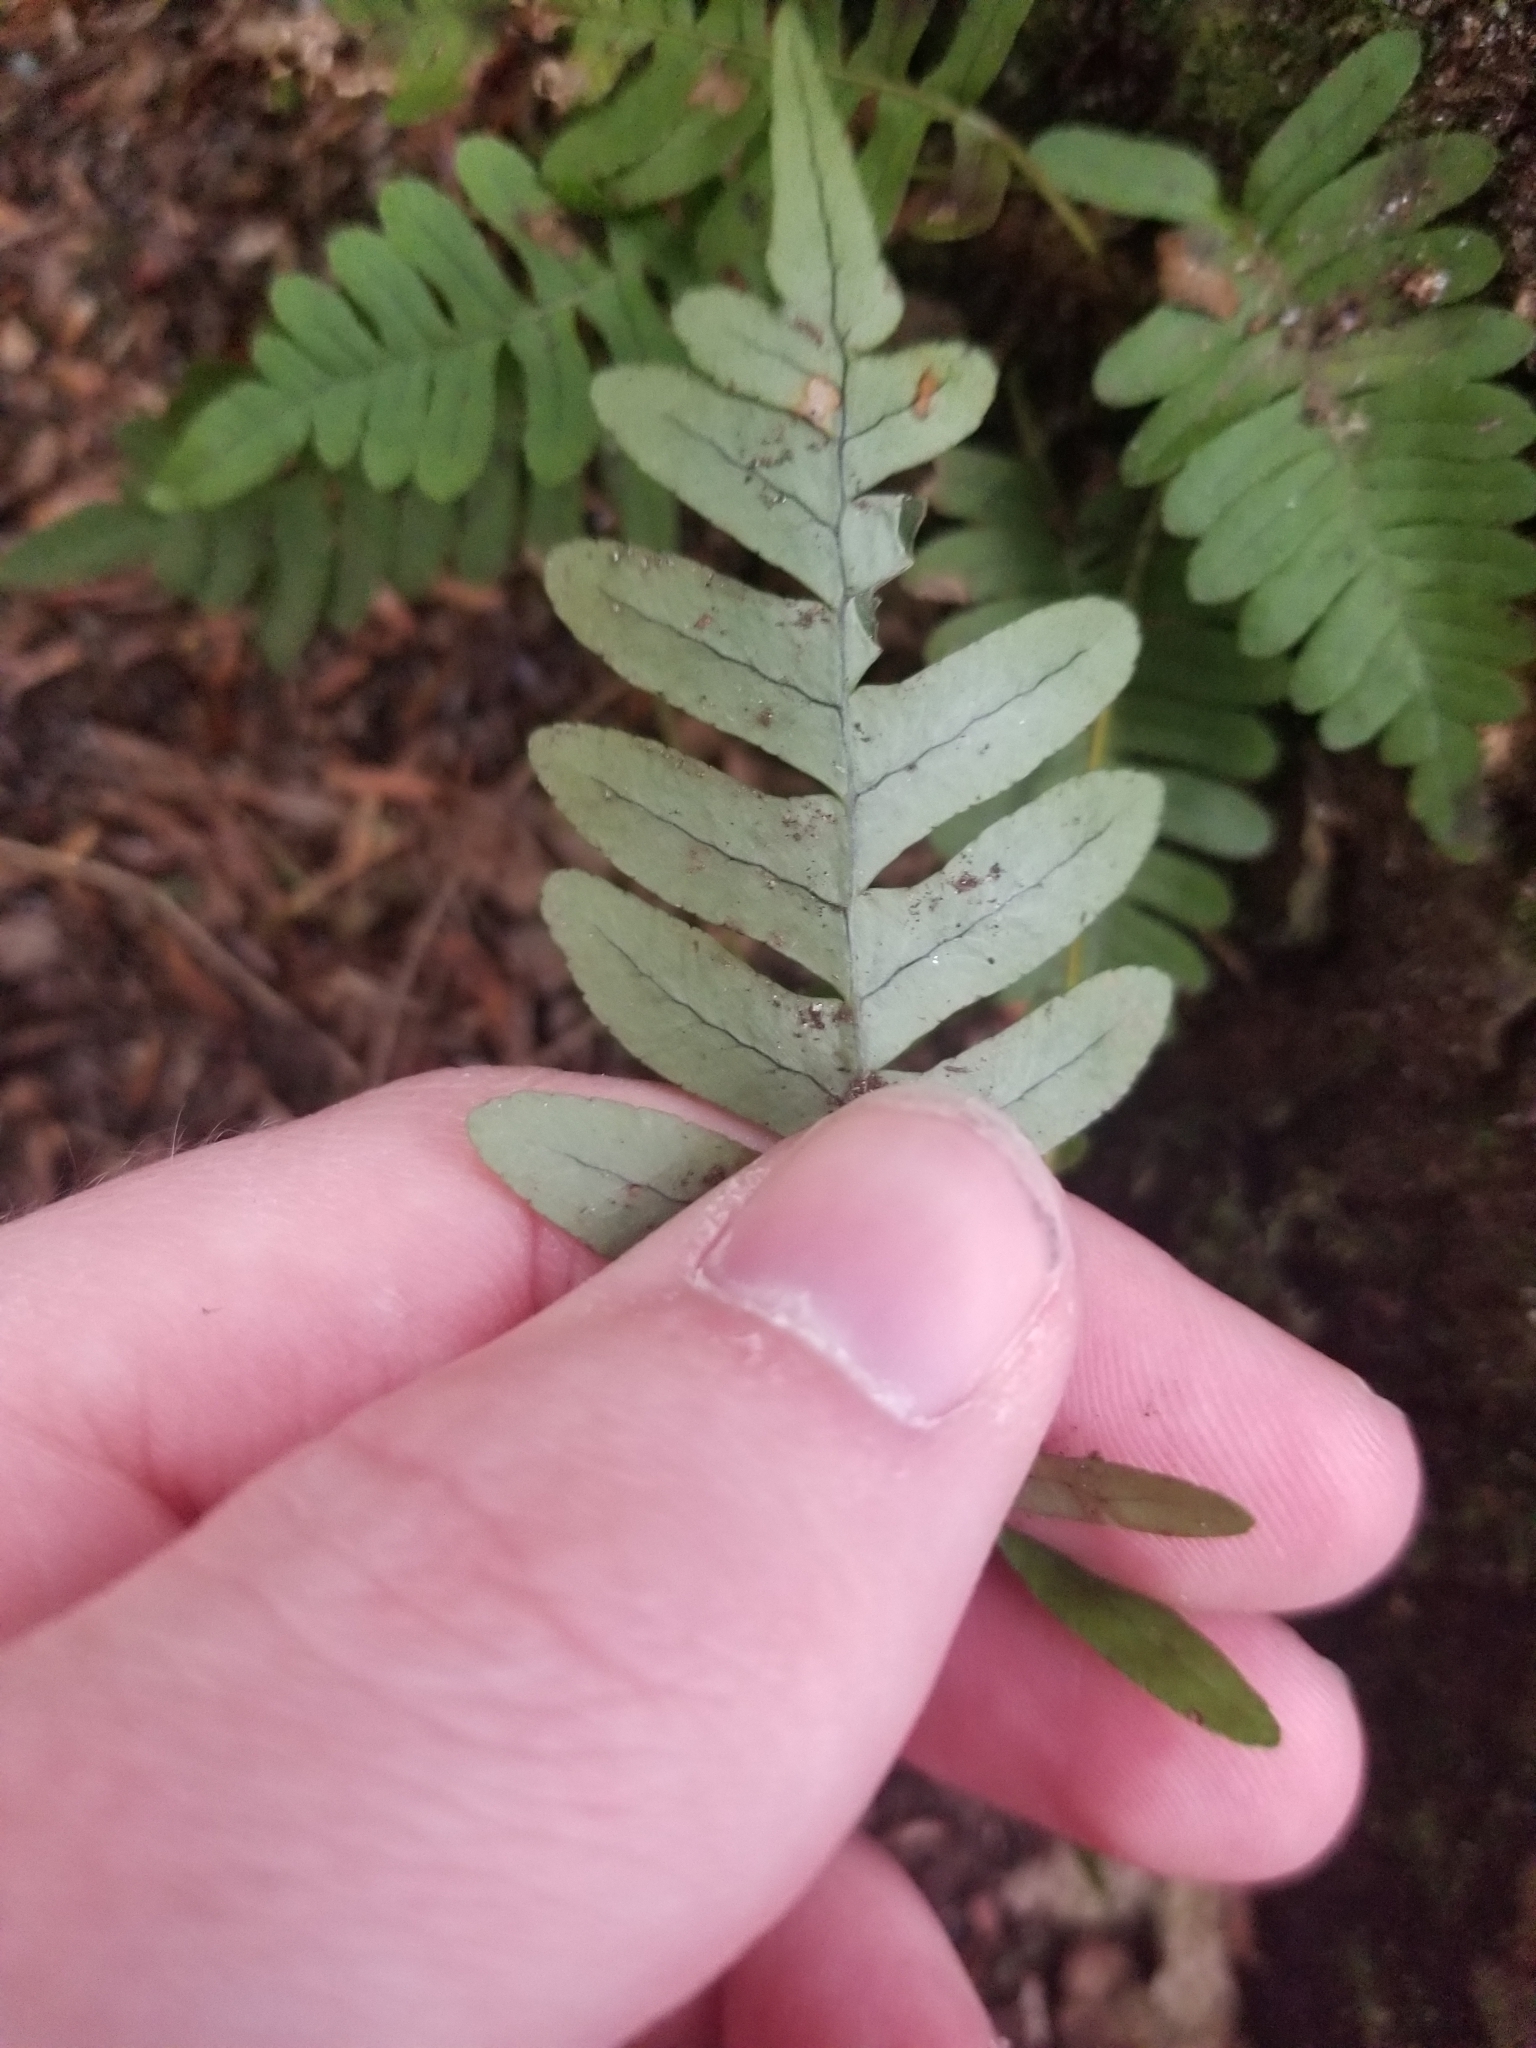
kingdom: Plantae
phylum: Tracheophyta
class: Polypodiopsida
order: Polypodiales
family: Polypodiaceae
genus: Polypodium
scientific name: Polypodium virginianum
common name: American wall fern
